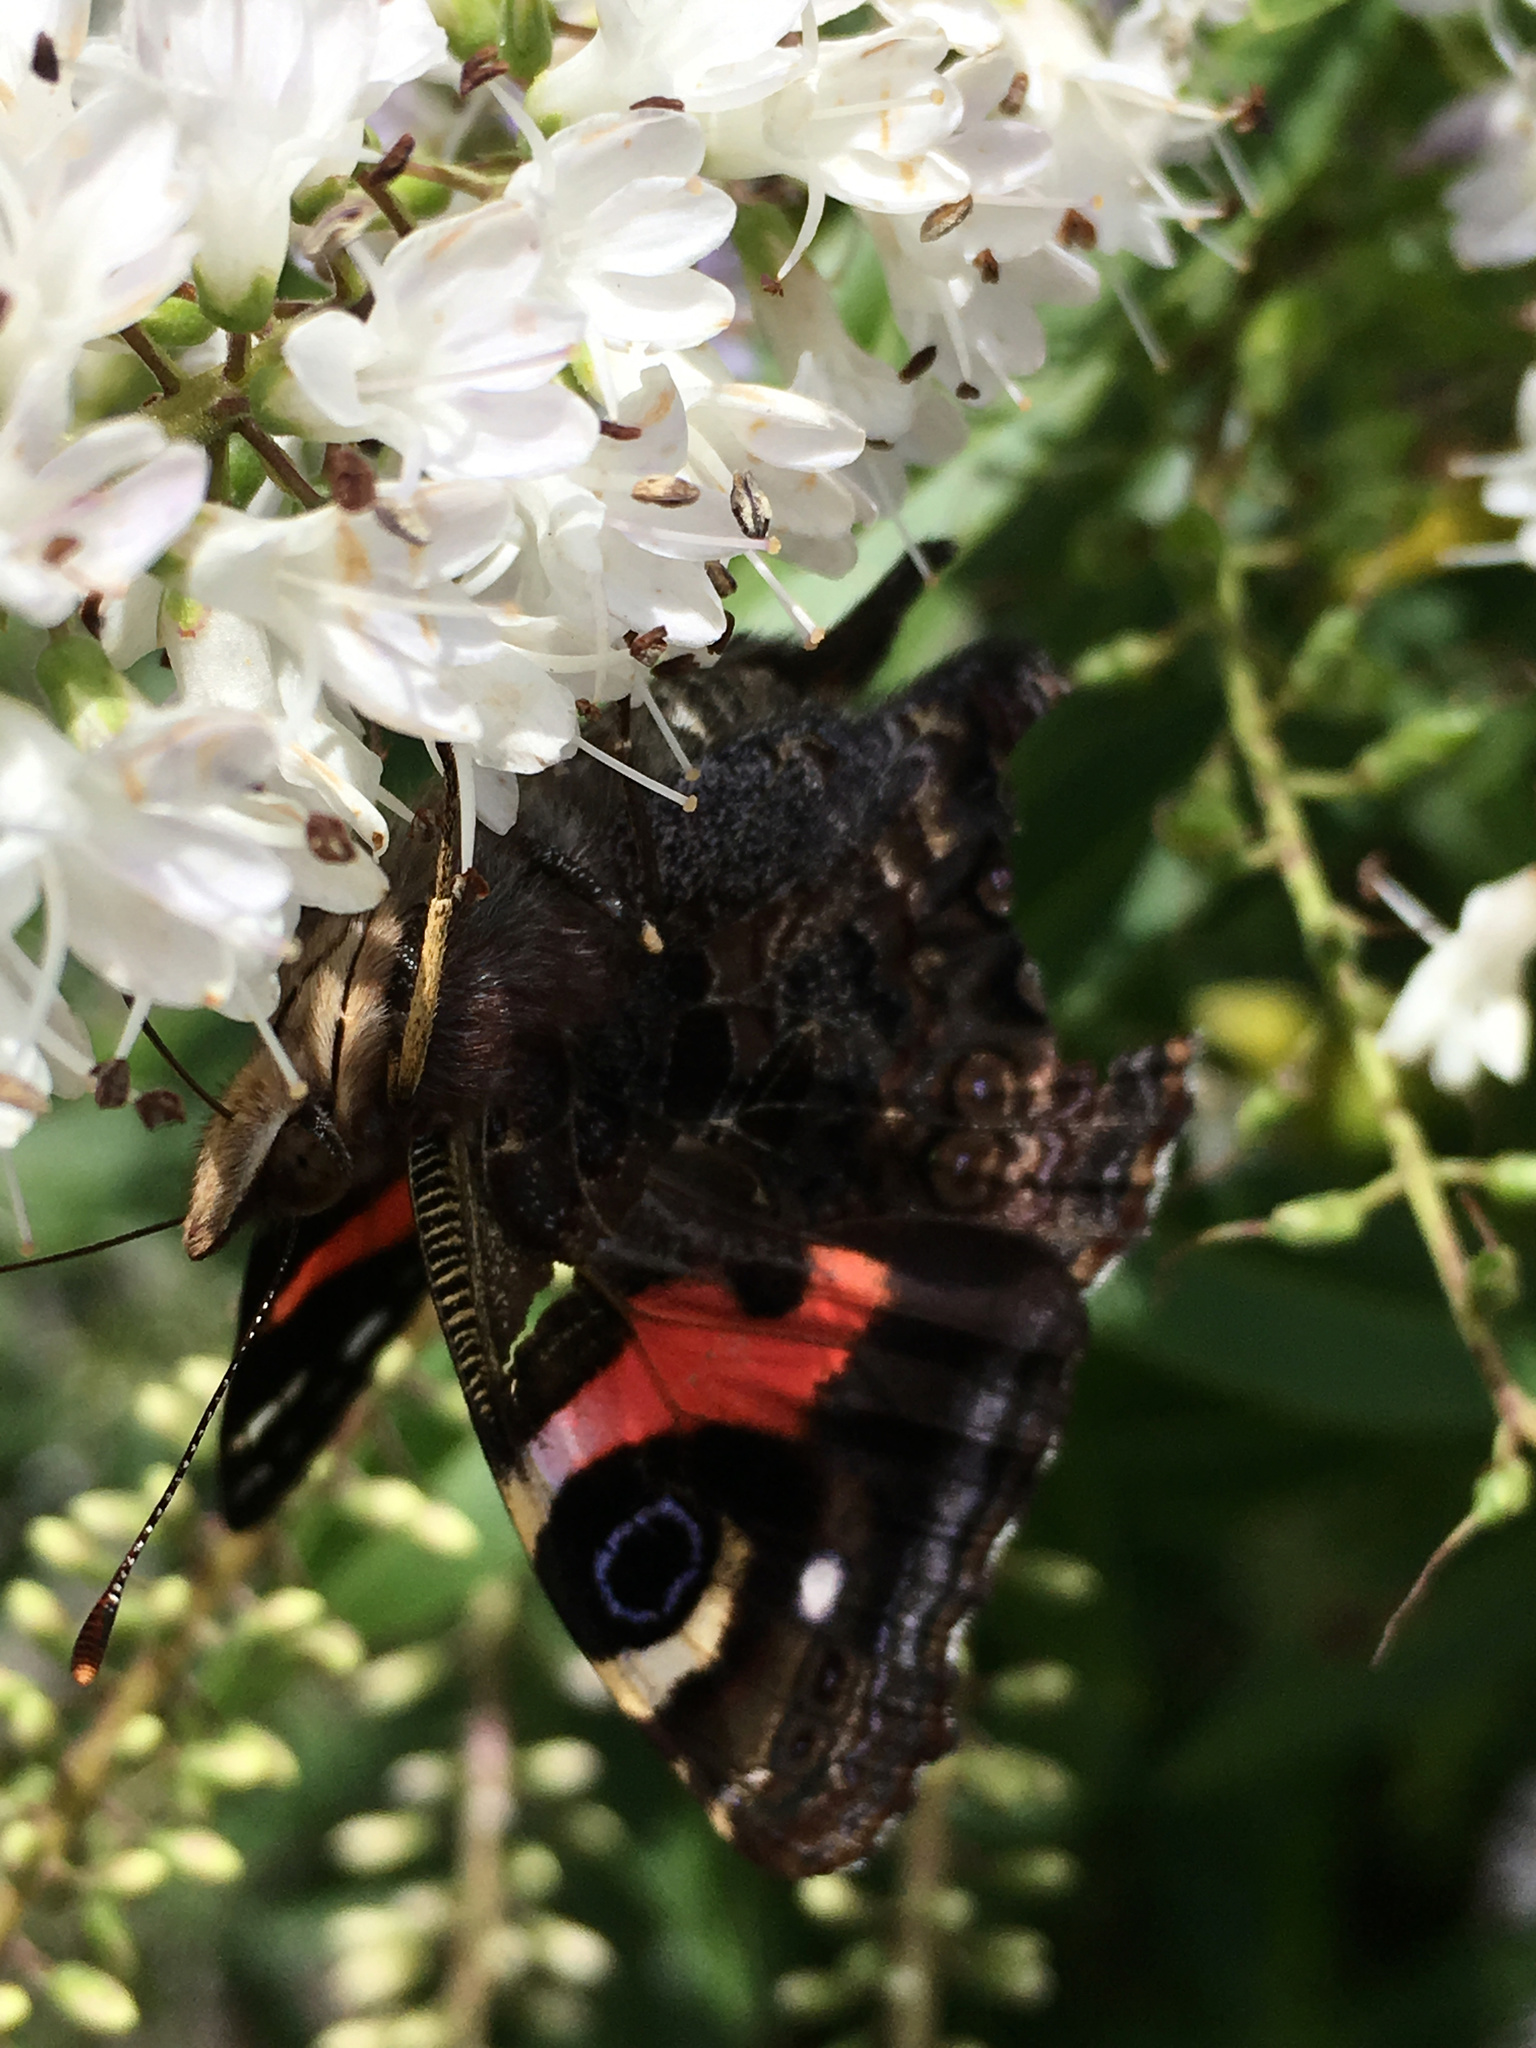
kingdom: Animalia
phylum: Arthropoda
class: Insecta
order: Lepidoptera
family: Nymphalidae
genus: Vanessa
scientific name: Vanessa gonerilla
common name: New zealand red admiral
